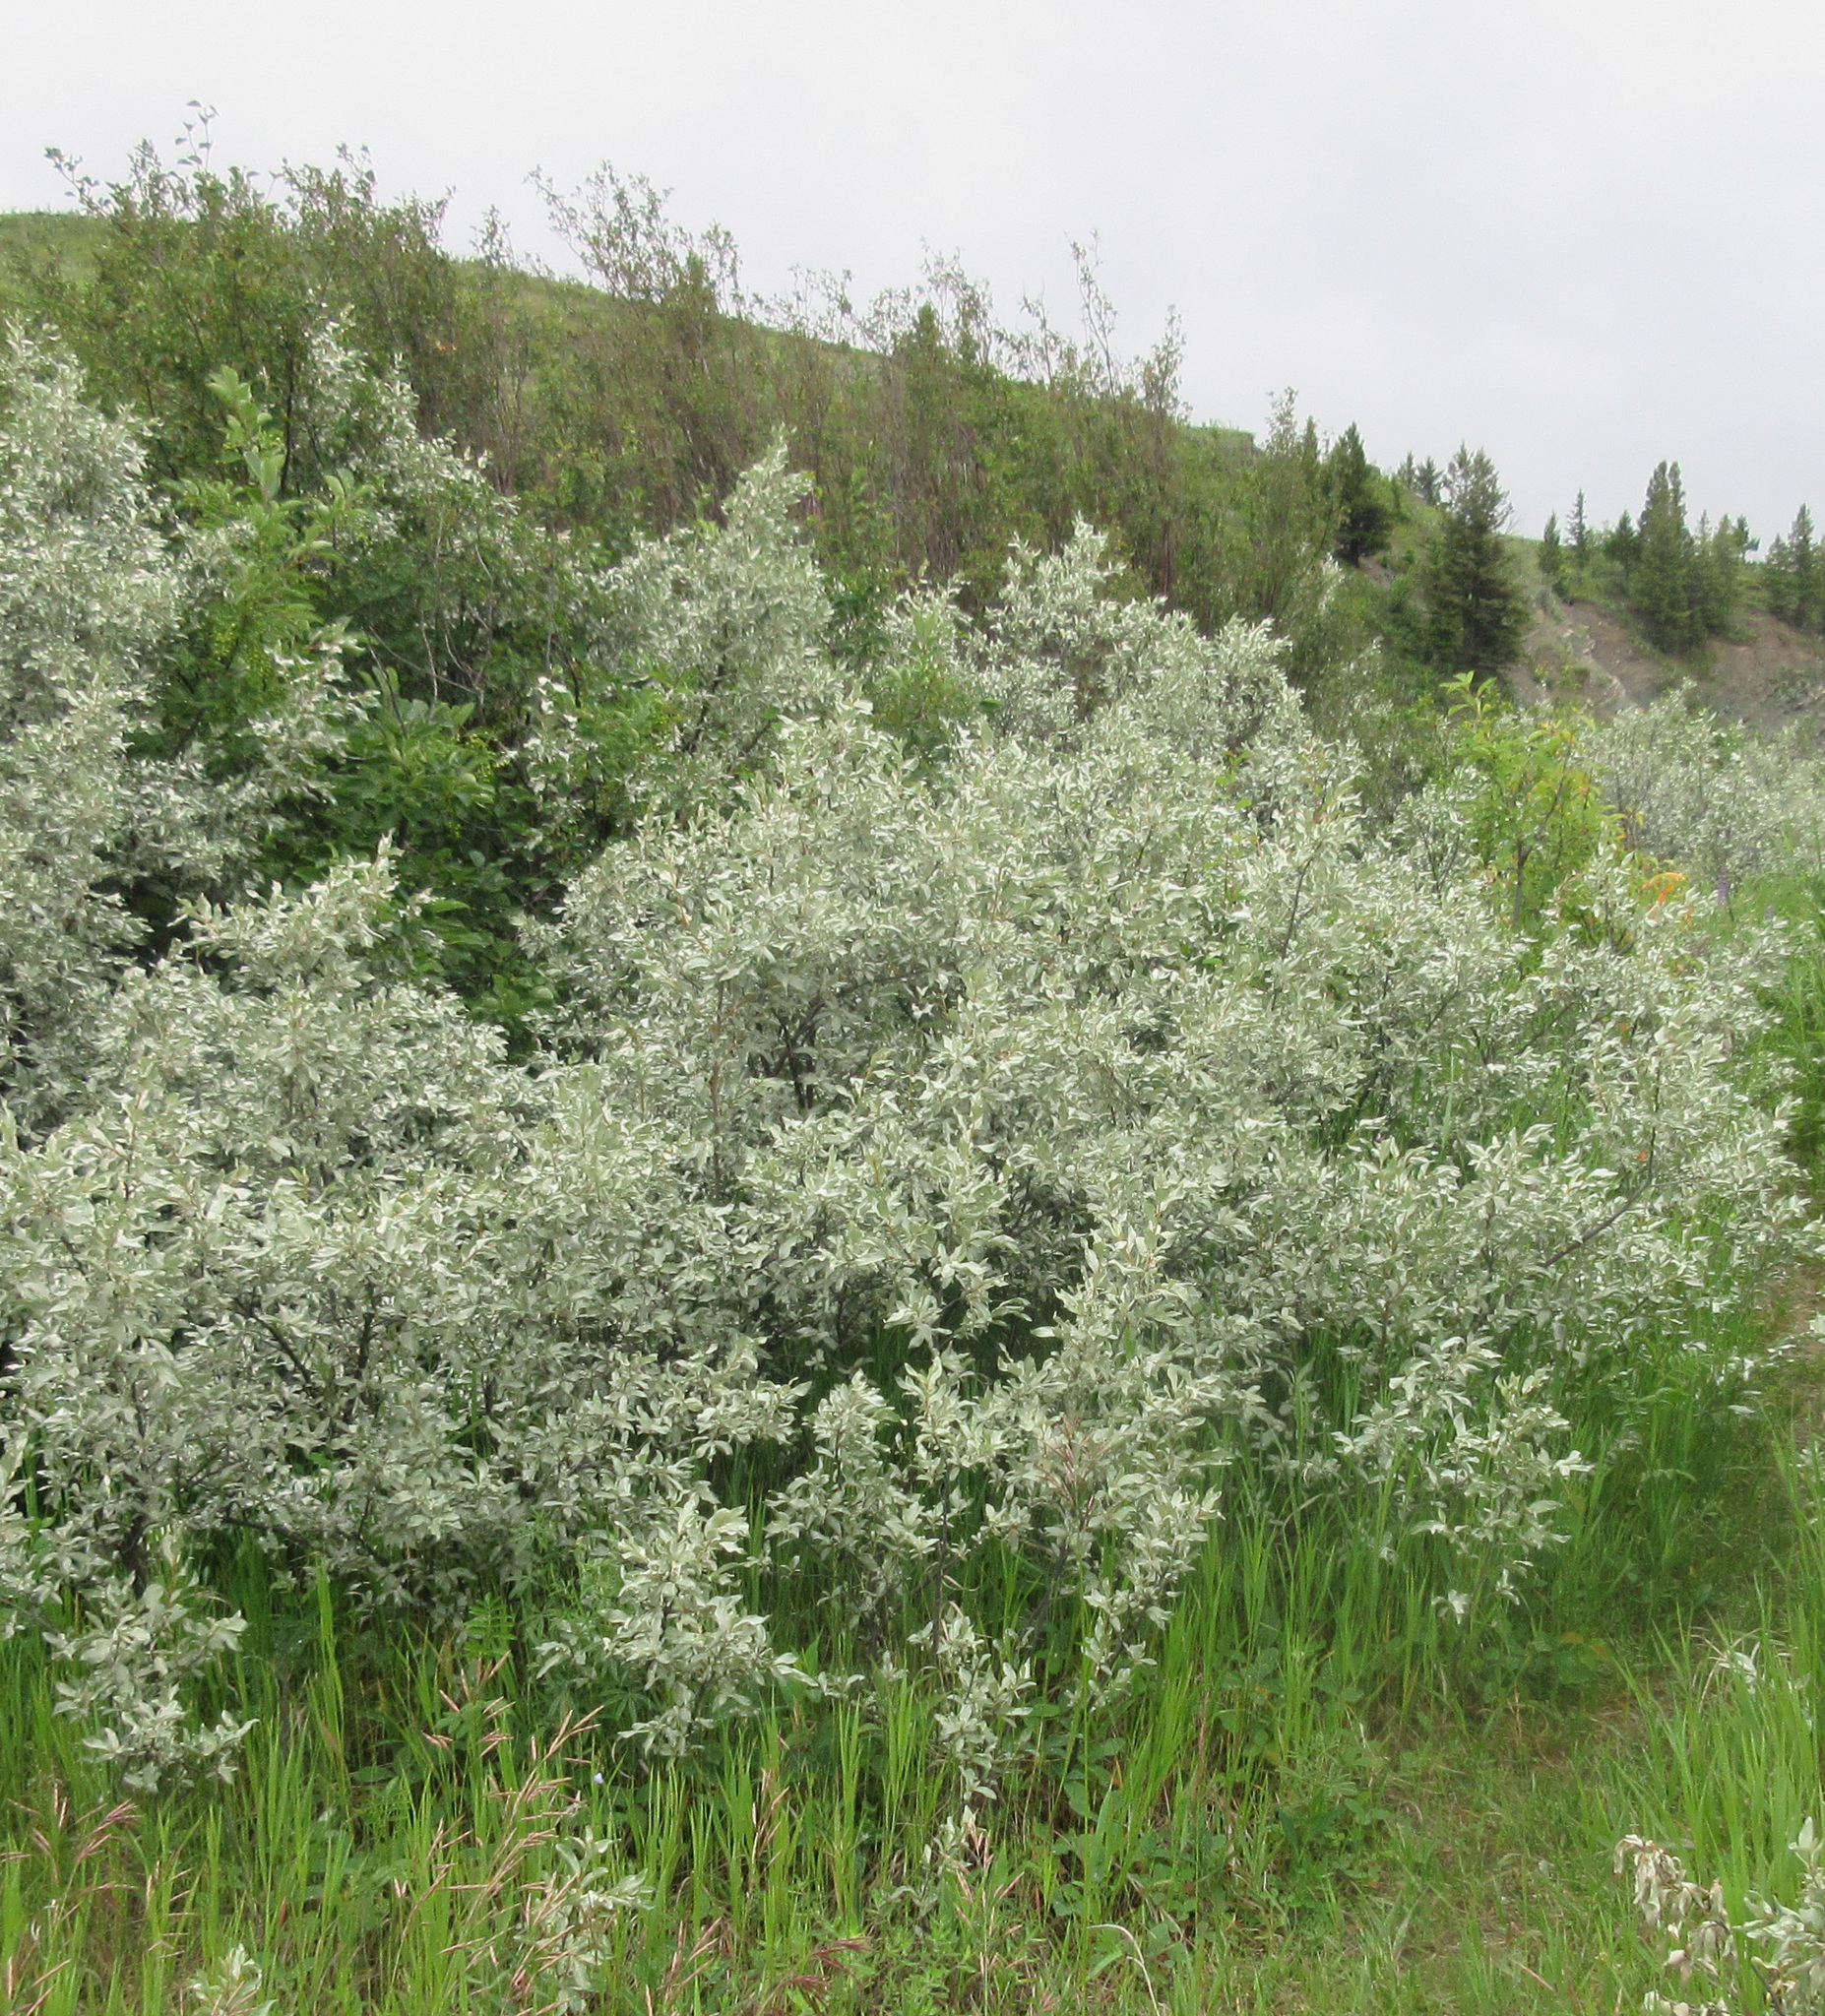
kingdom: Plantae
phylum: Tracheophyta
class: Magnoliopsida
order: Rosales
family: Elaeagnaceae
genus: Elaeagnus
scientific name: Elaeagnus commutata
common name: Silverberry
